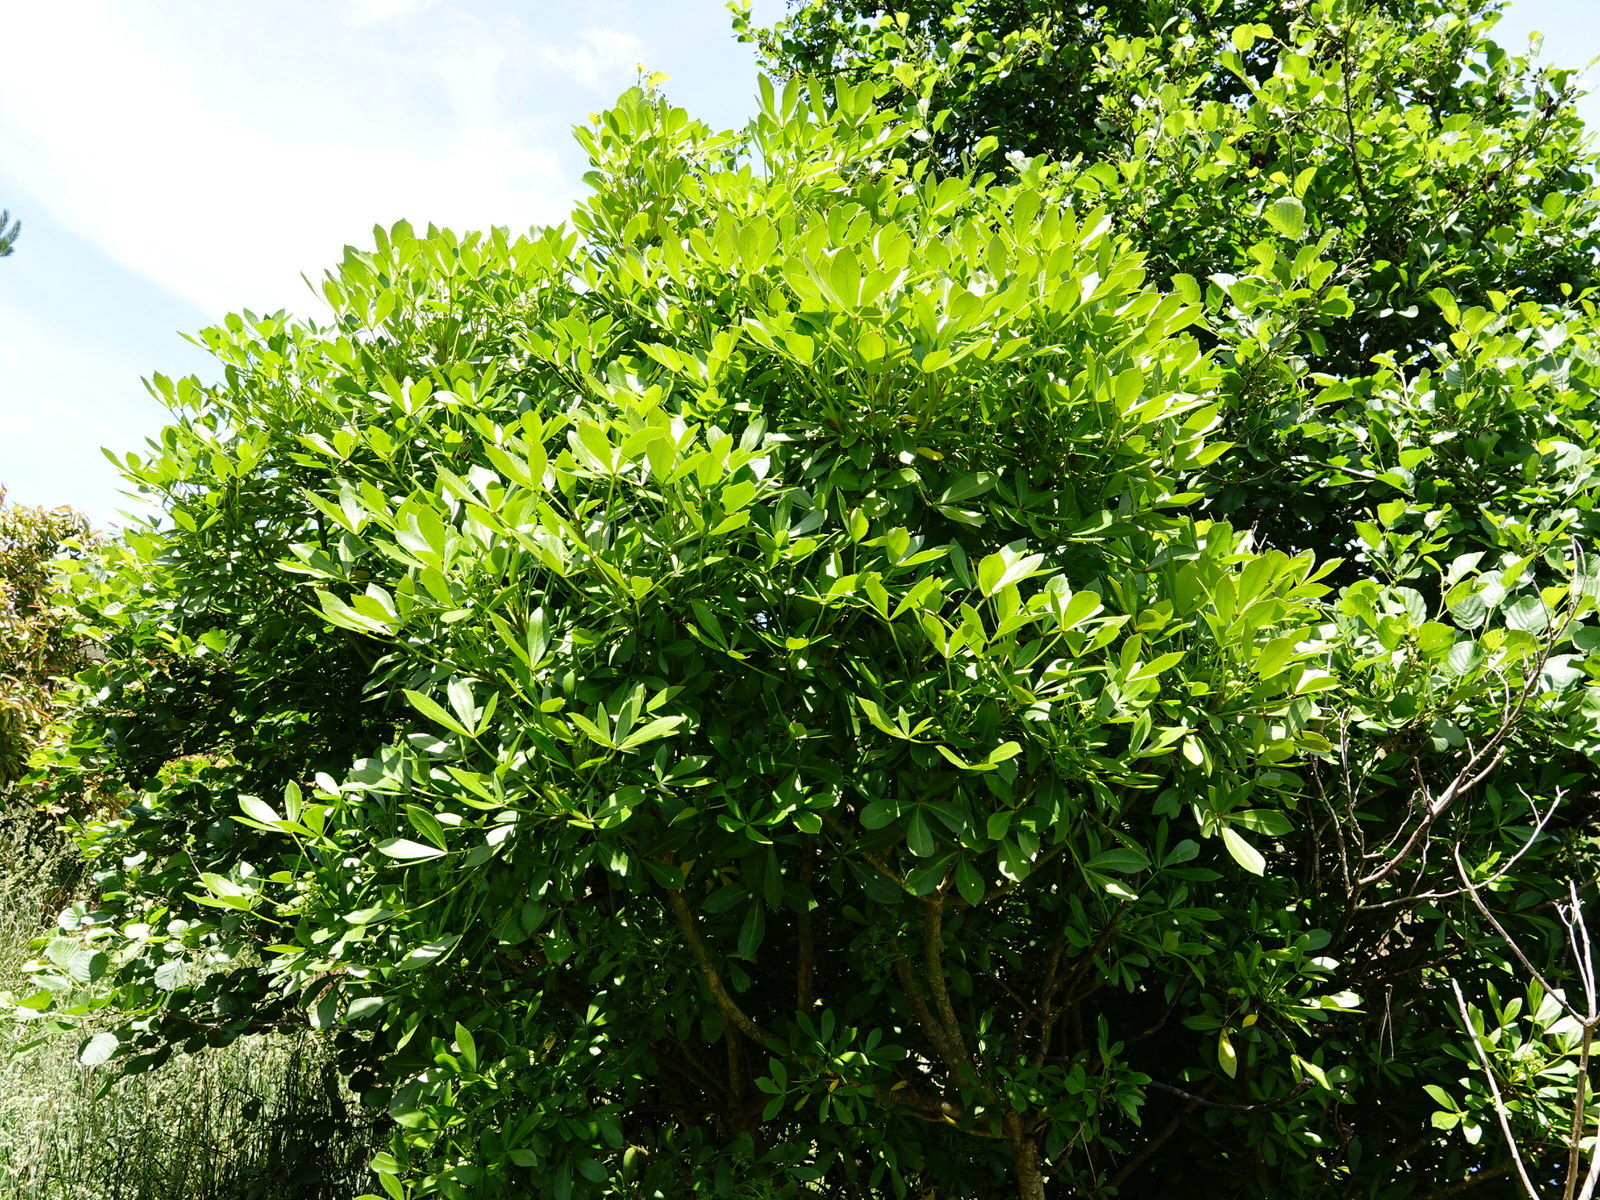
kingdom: Plantae
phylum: Tracheophyta
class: Magnoliopsida
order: Apiales
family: Araliaceae
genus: Pseudopanax
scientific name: Pseudopanax lessonii
